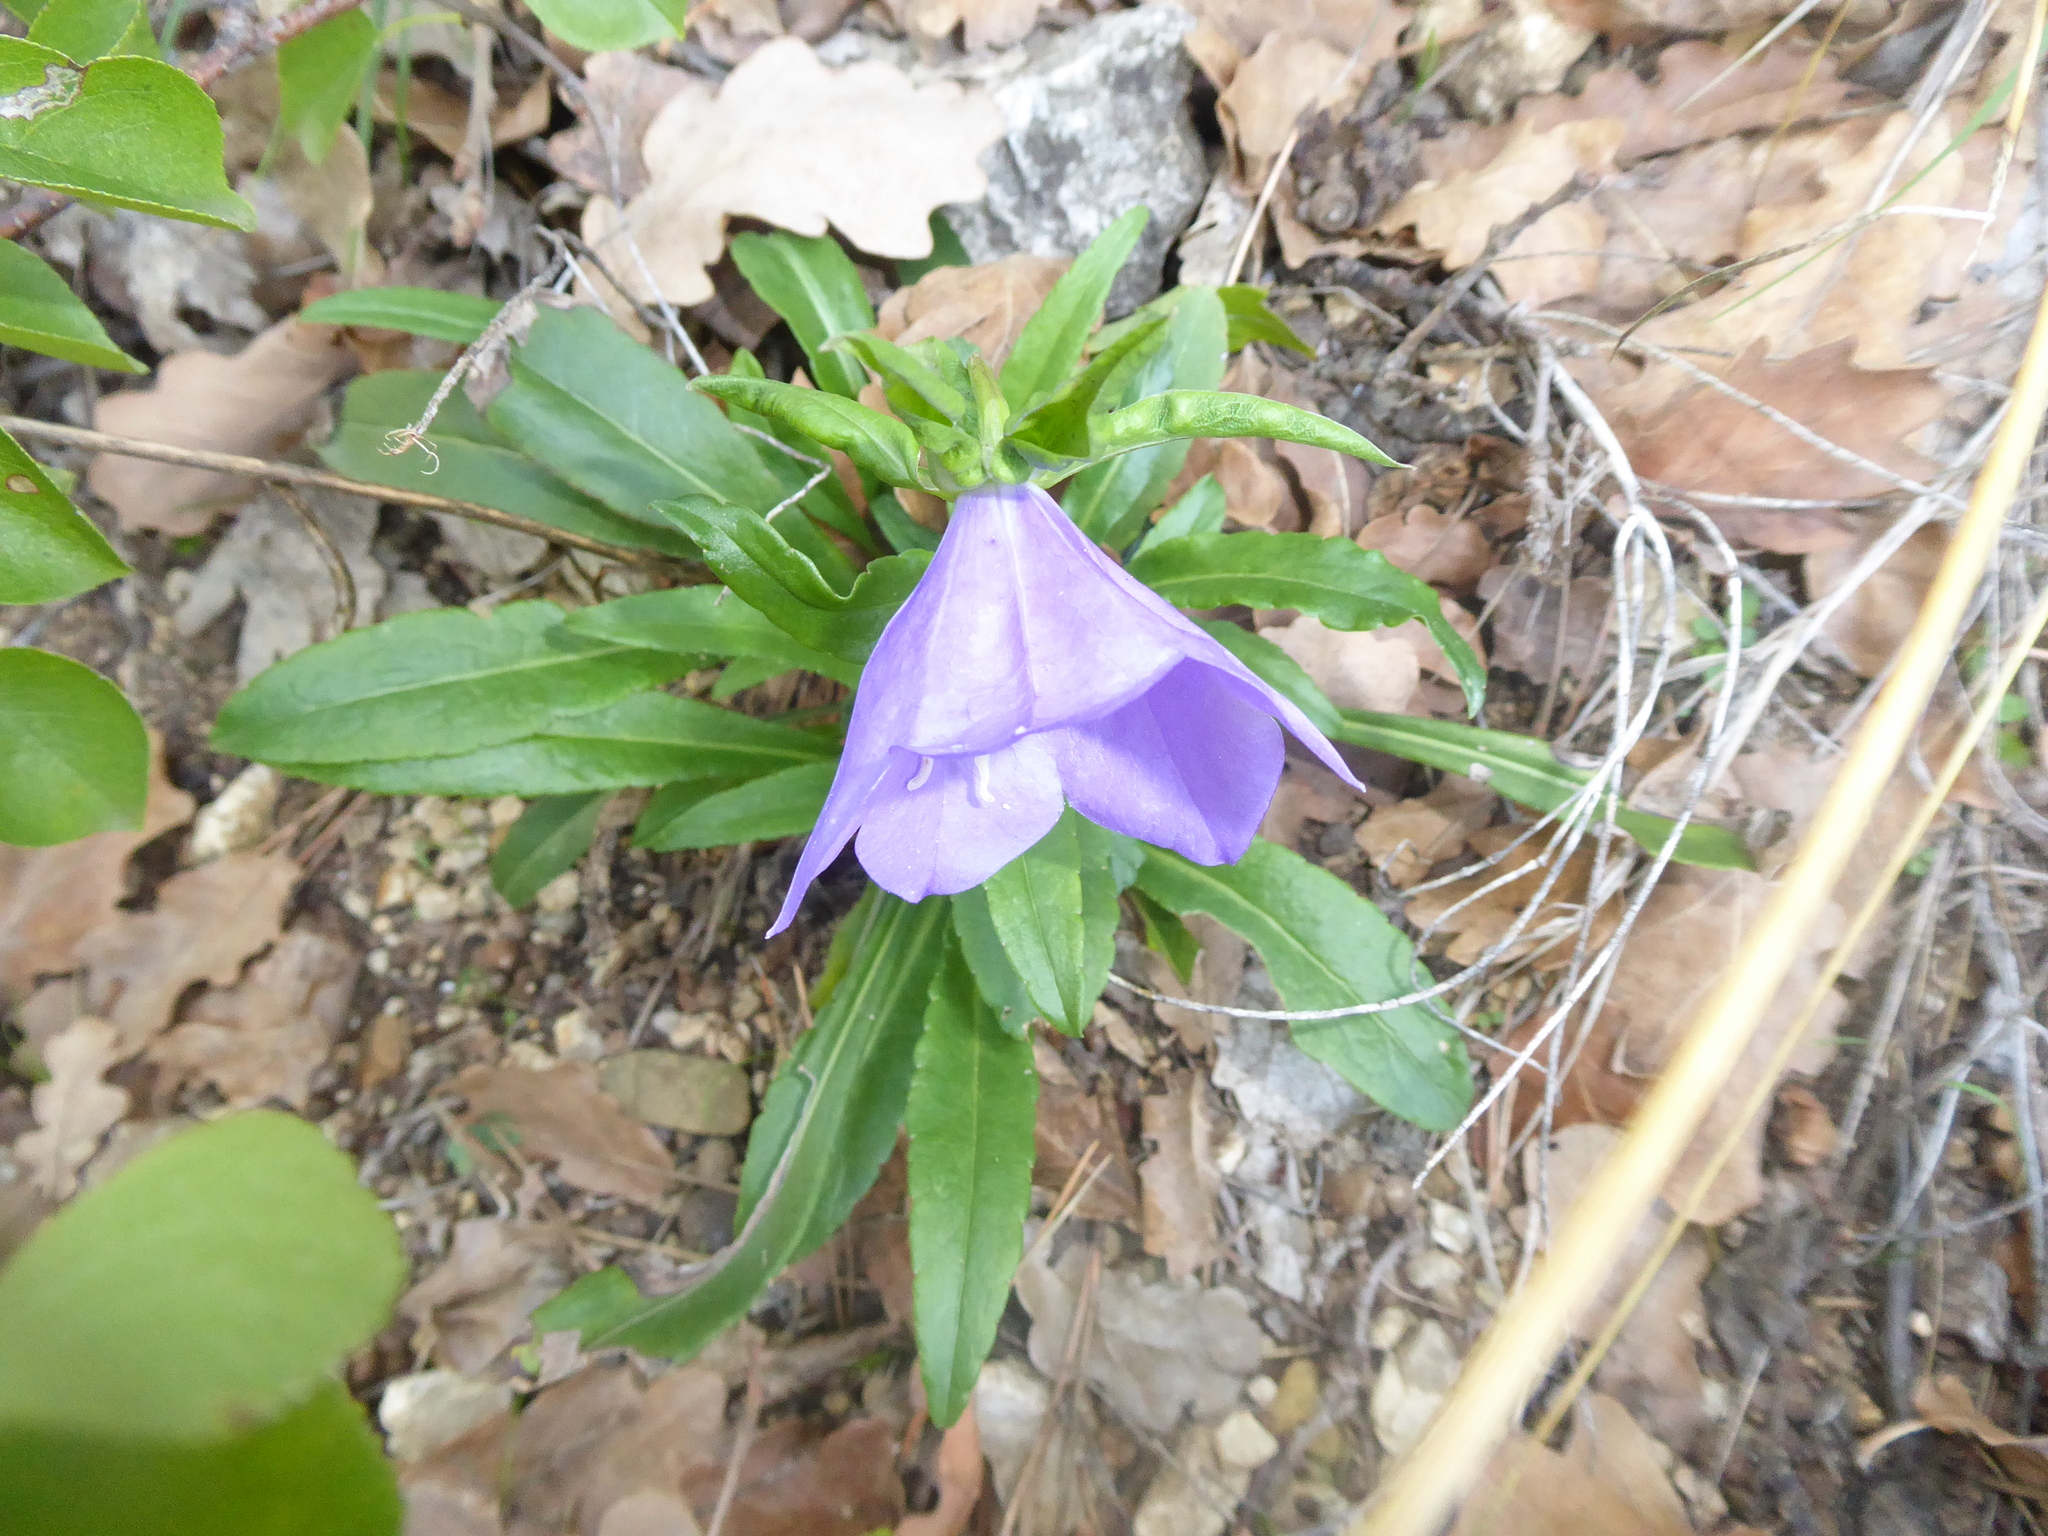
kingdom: Plantae
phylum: Tracheophyta
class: Magnoliopsida
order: Asterales
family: Campanulaceae
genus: Campanula
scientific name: Campanula persicifolia
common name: Peach-leaved bellflower
